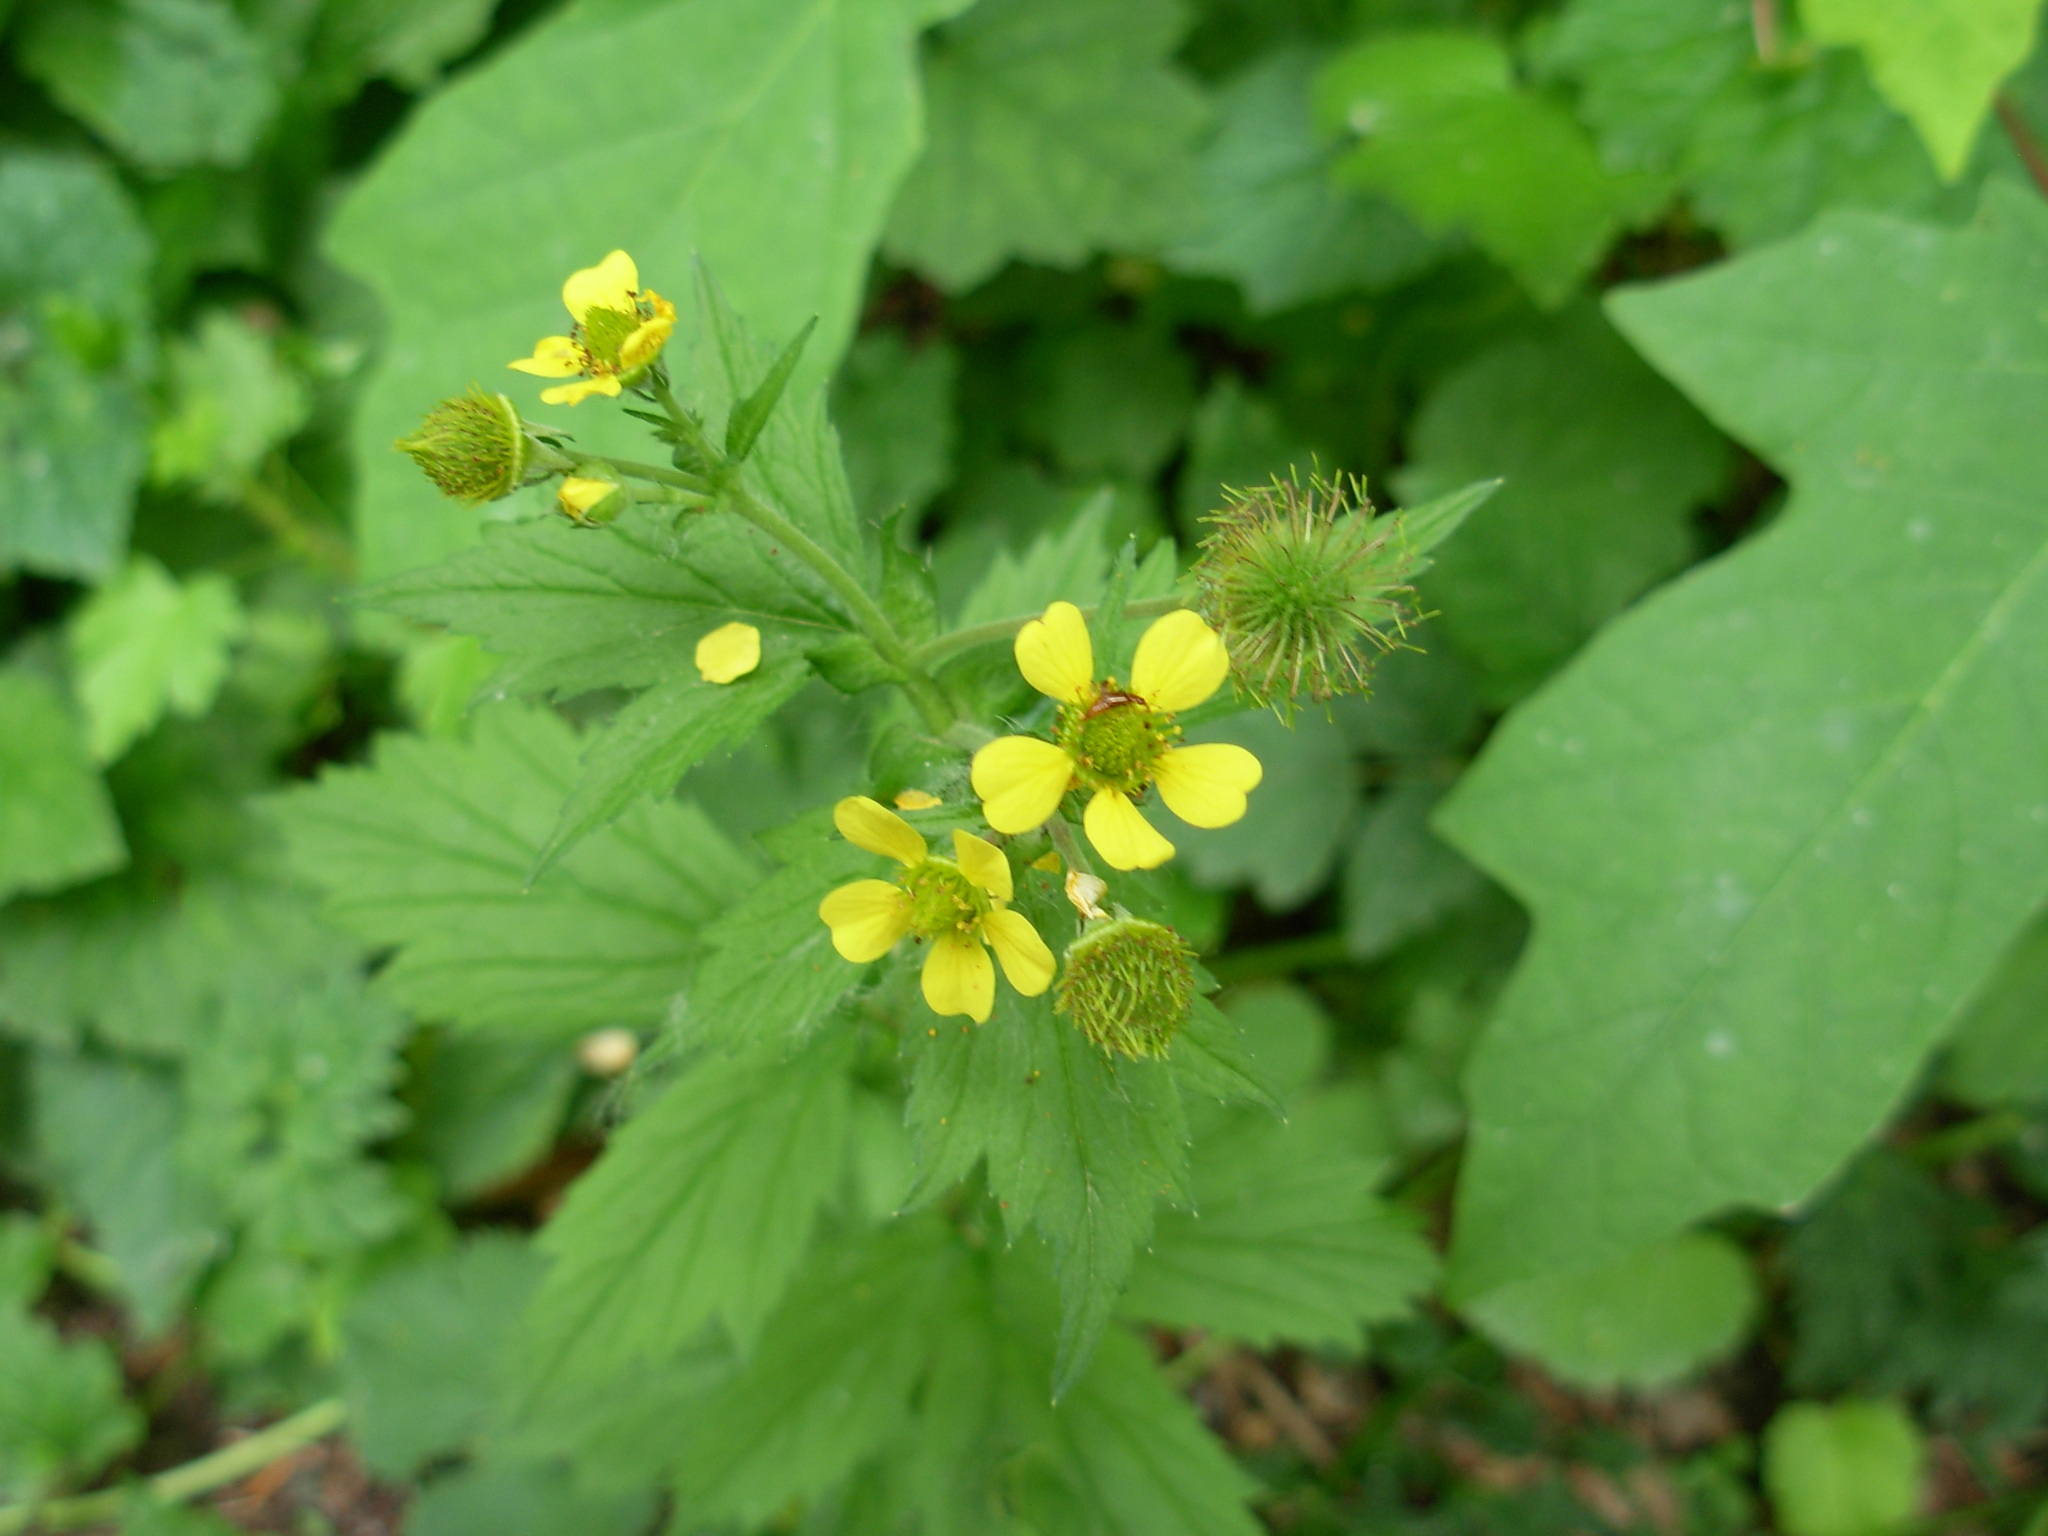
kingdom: Plantae
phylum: Tracheophyta
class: Magnoliopsida
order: Rosales
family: Rosaceae
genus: Geum
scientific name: Geum macrophyllum
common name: Large-leaved avens
